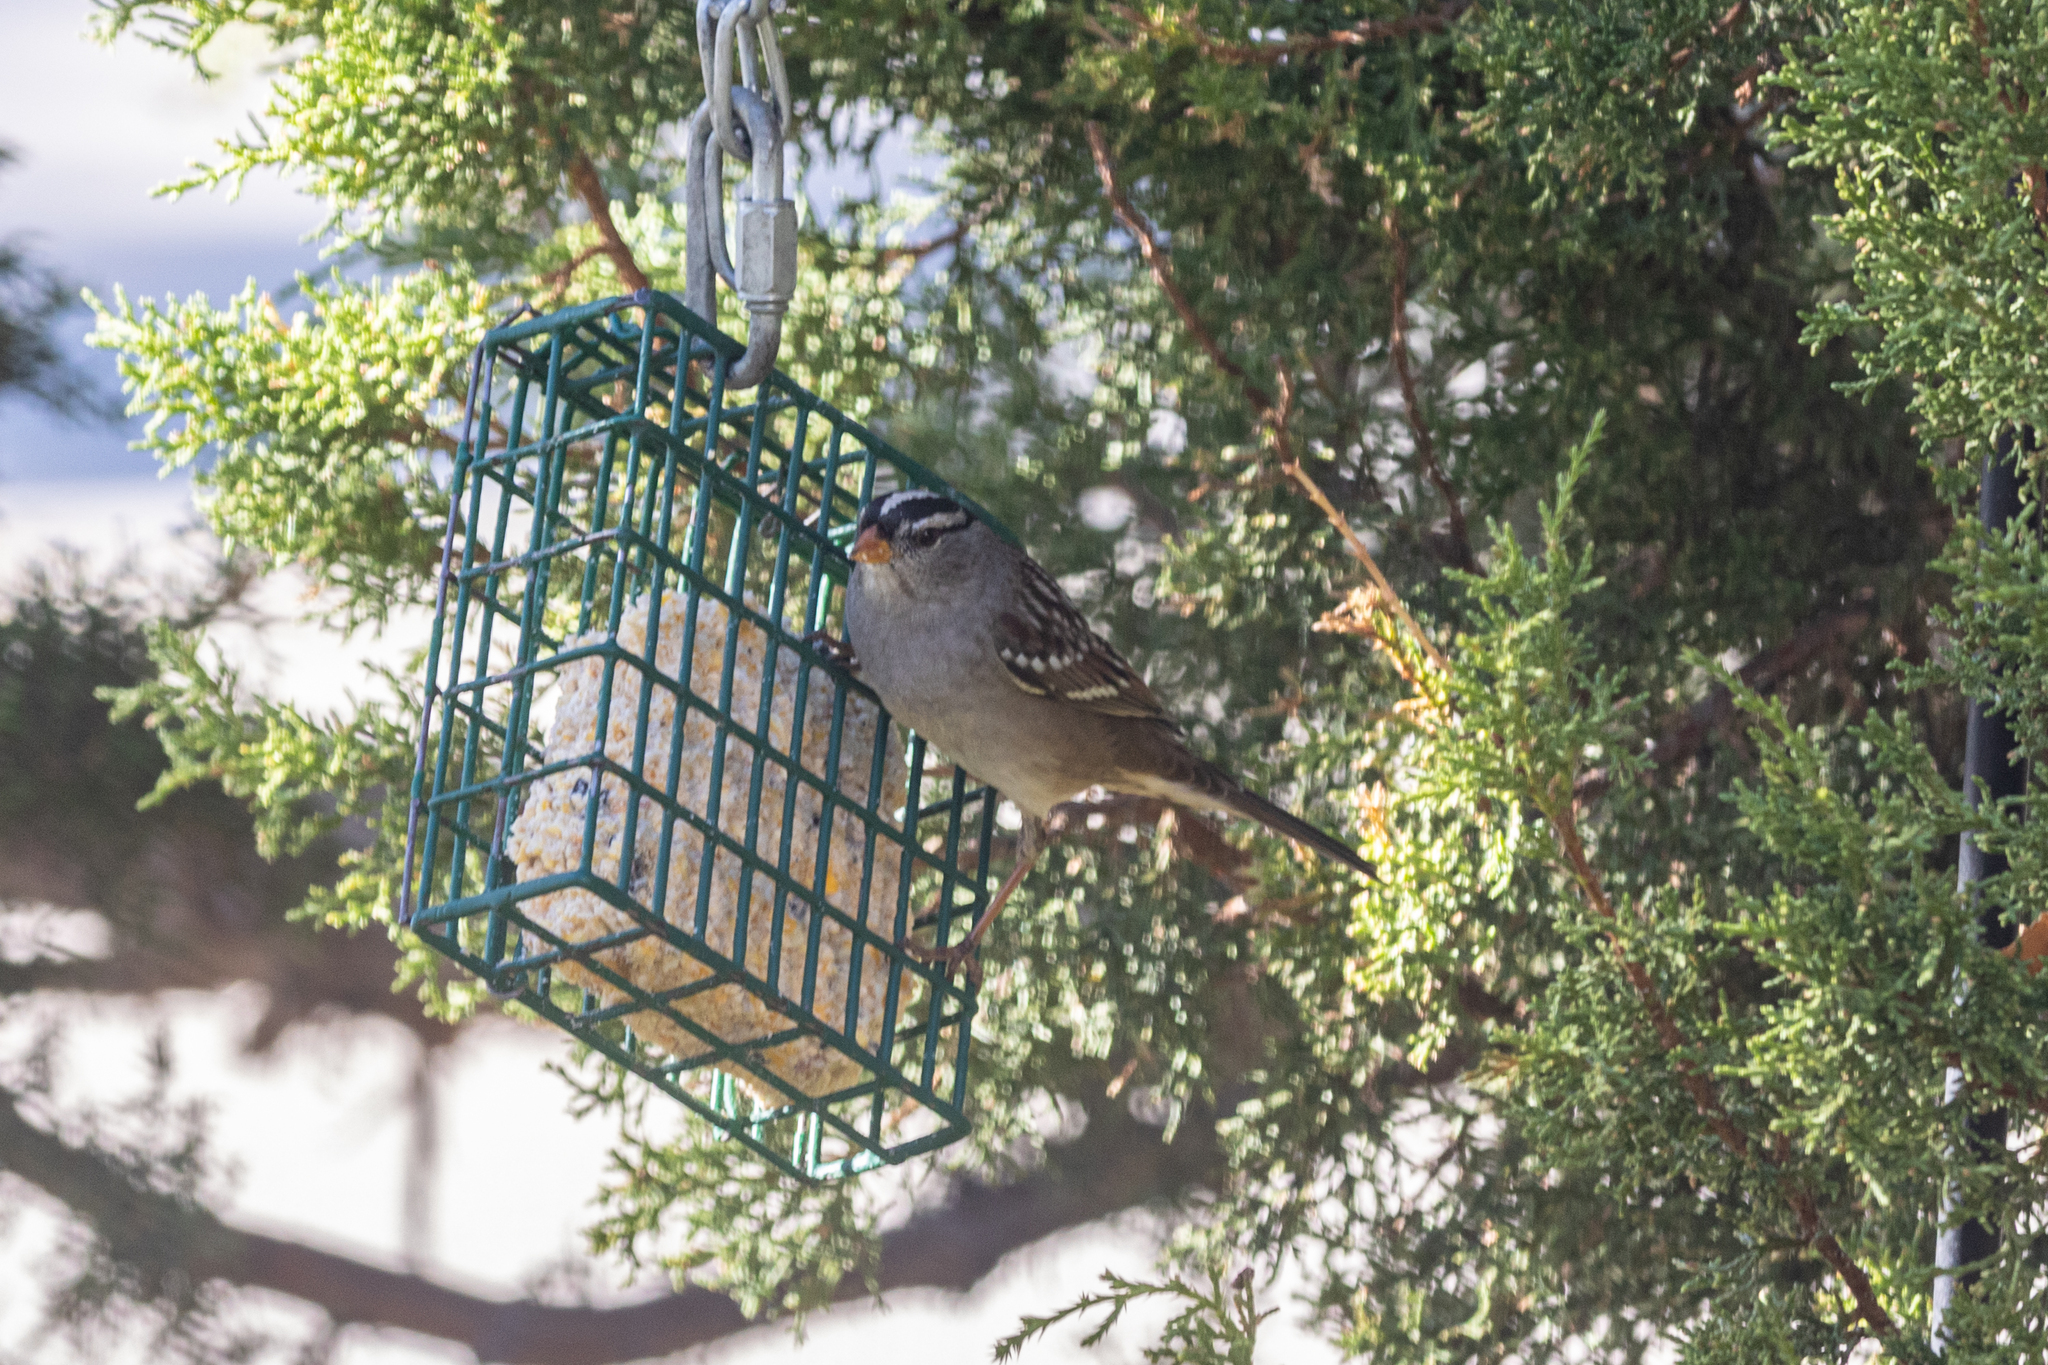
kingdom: Animalia
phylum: Chordata
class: Aves
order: Passeriformes
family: Passerellidae
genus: Zonotrichia
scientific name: Zonotrichia leucophrys
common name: White-crowned sparrow
